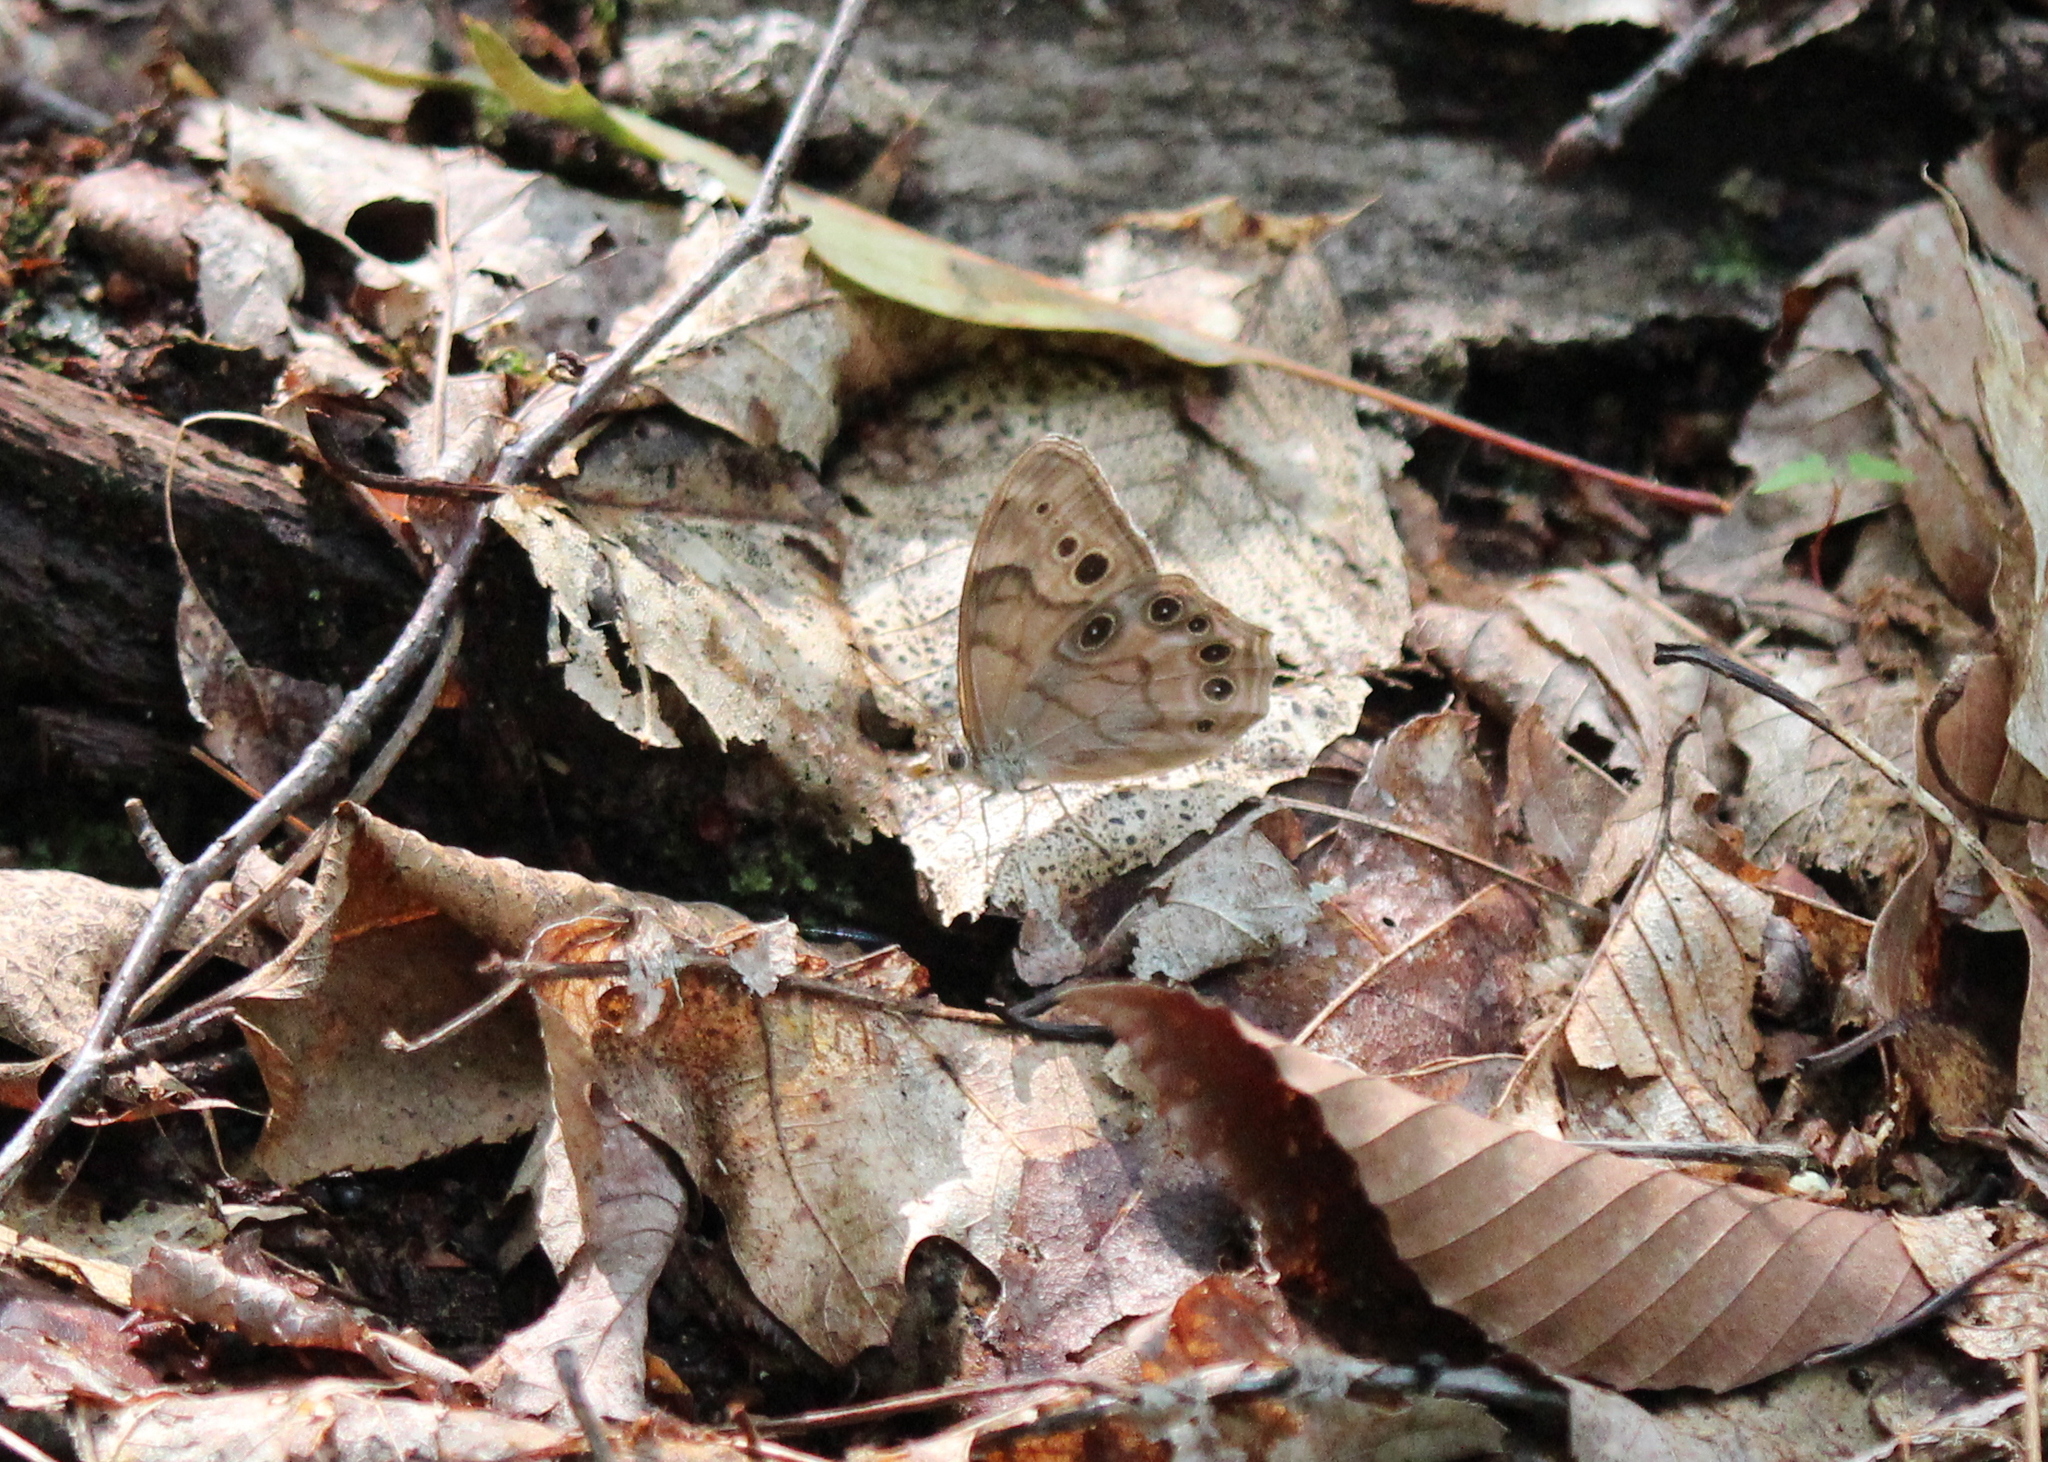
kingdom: Animalia
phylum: Arthropoda
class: Insecta
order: Lepidoptera
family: Nymphalidae
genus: Lethe
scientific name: Lethe anthedon
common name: Northern pearly-eye
